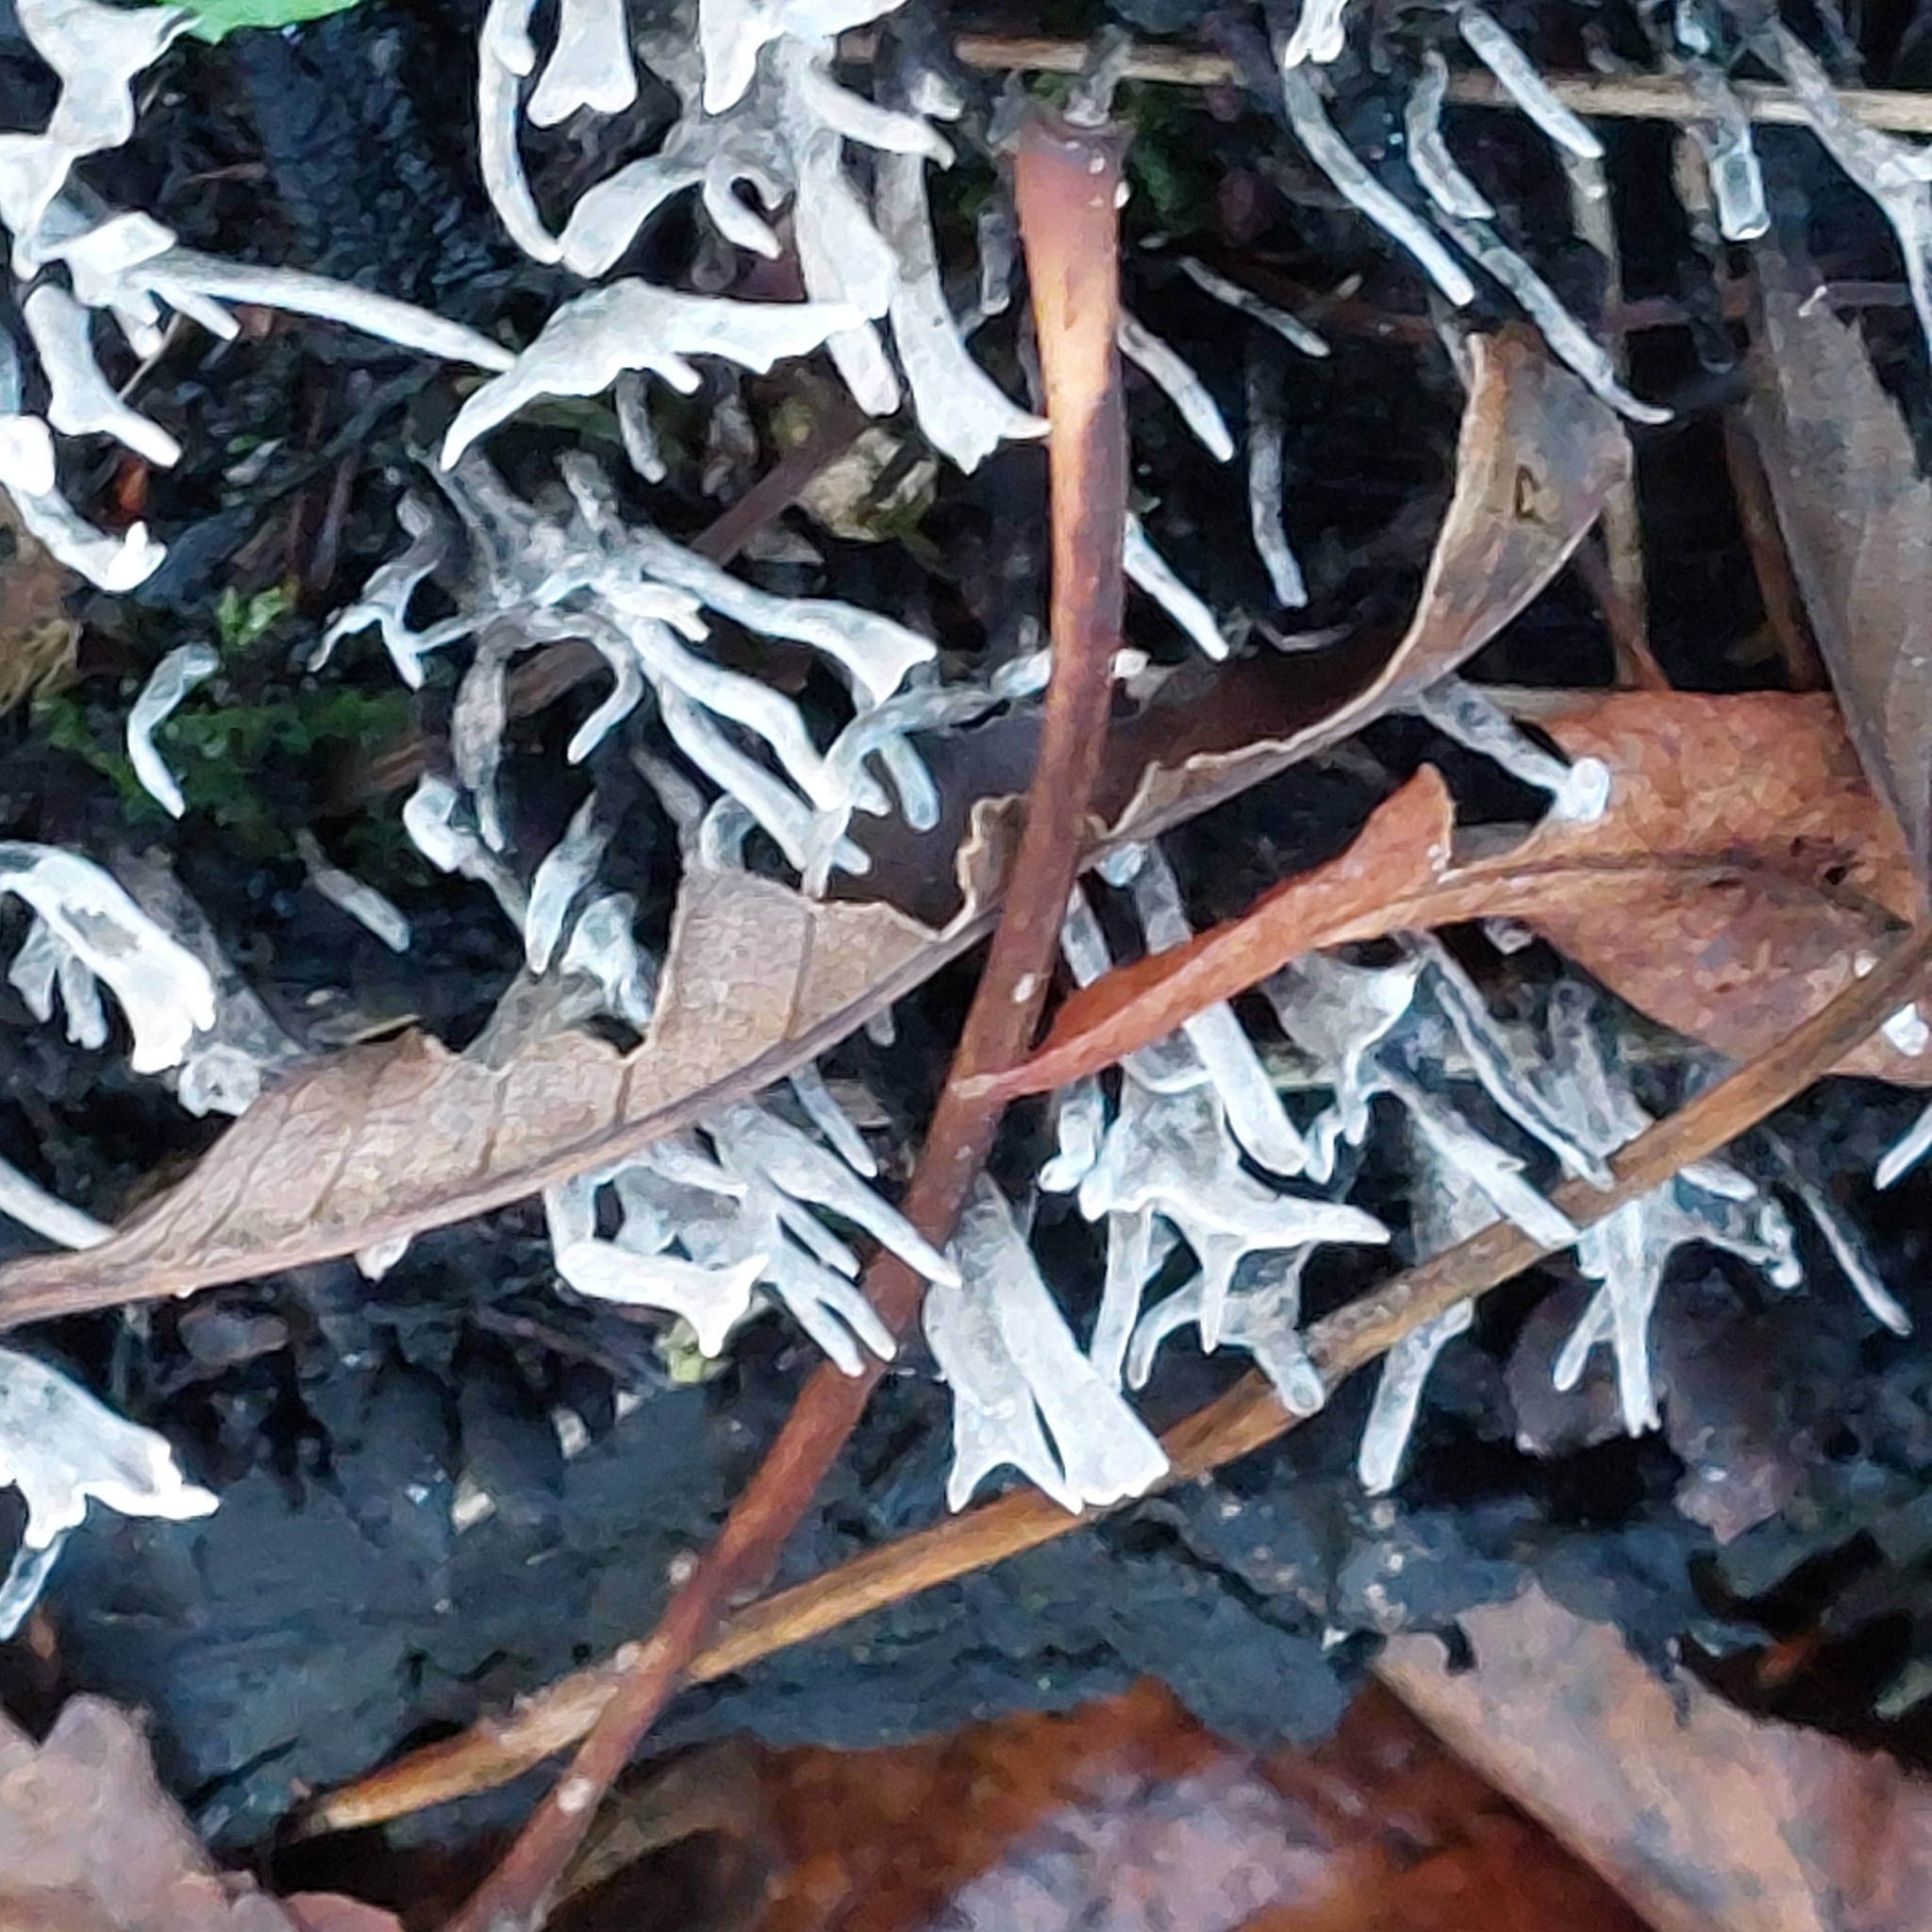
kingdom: Fungi
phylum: Ascomycota
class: Sordariomycetes
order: Xylariales
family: Xylariaceae
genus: Xylaria
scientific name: Xylaria hypoxylon
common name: Candle-snuff fungus
